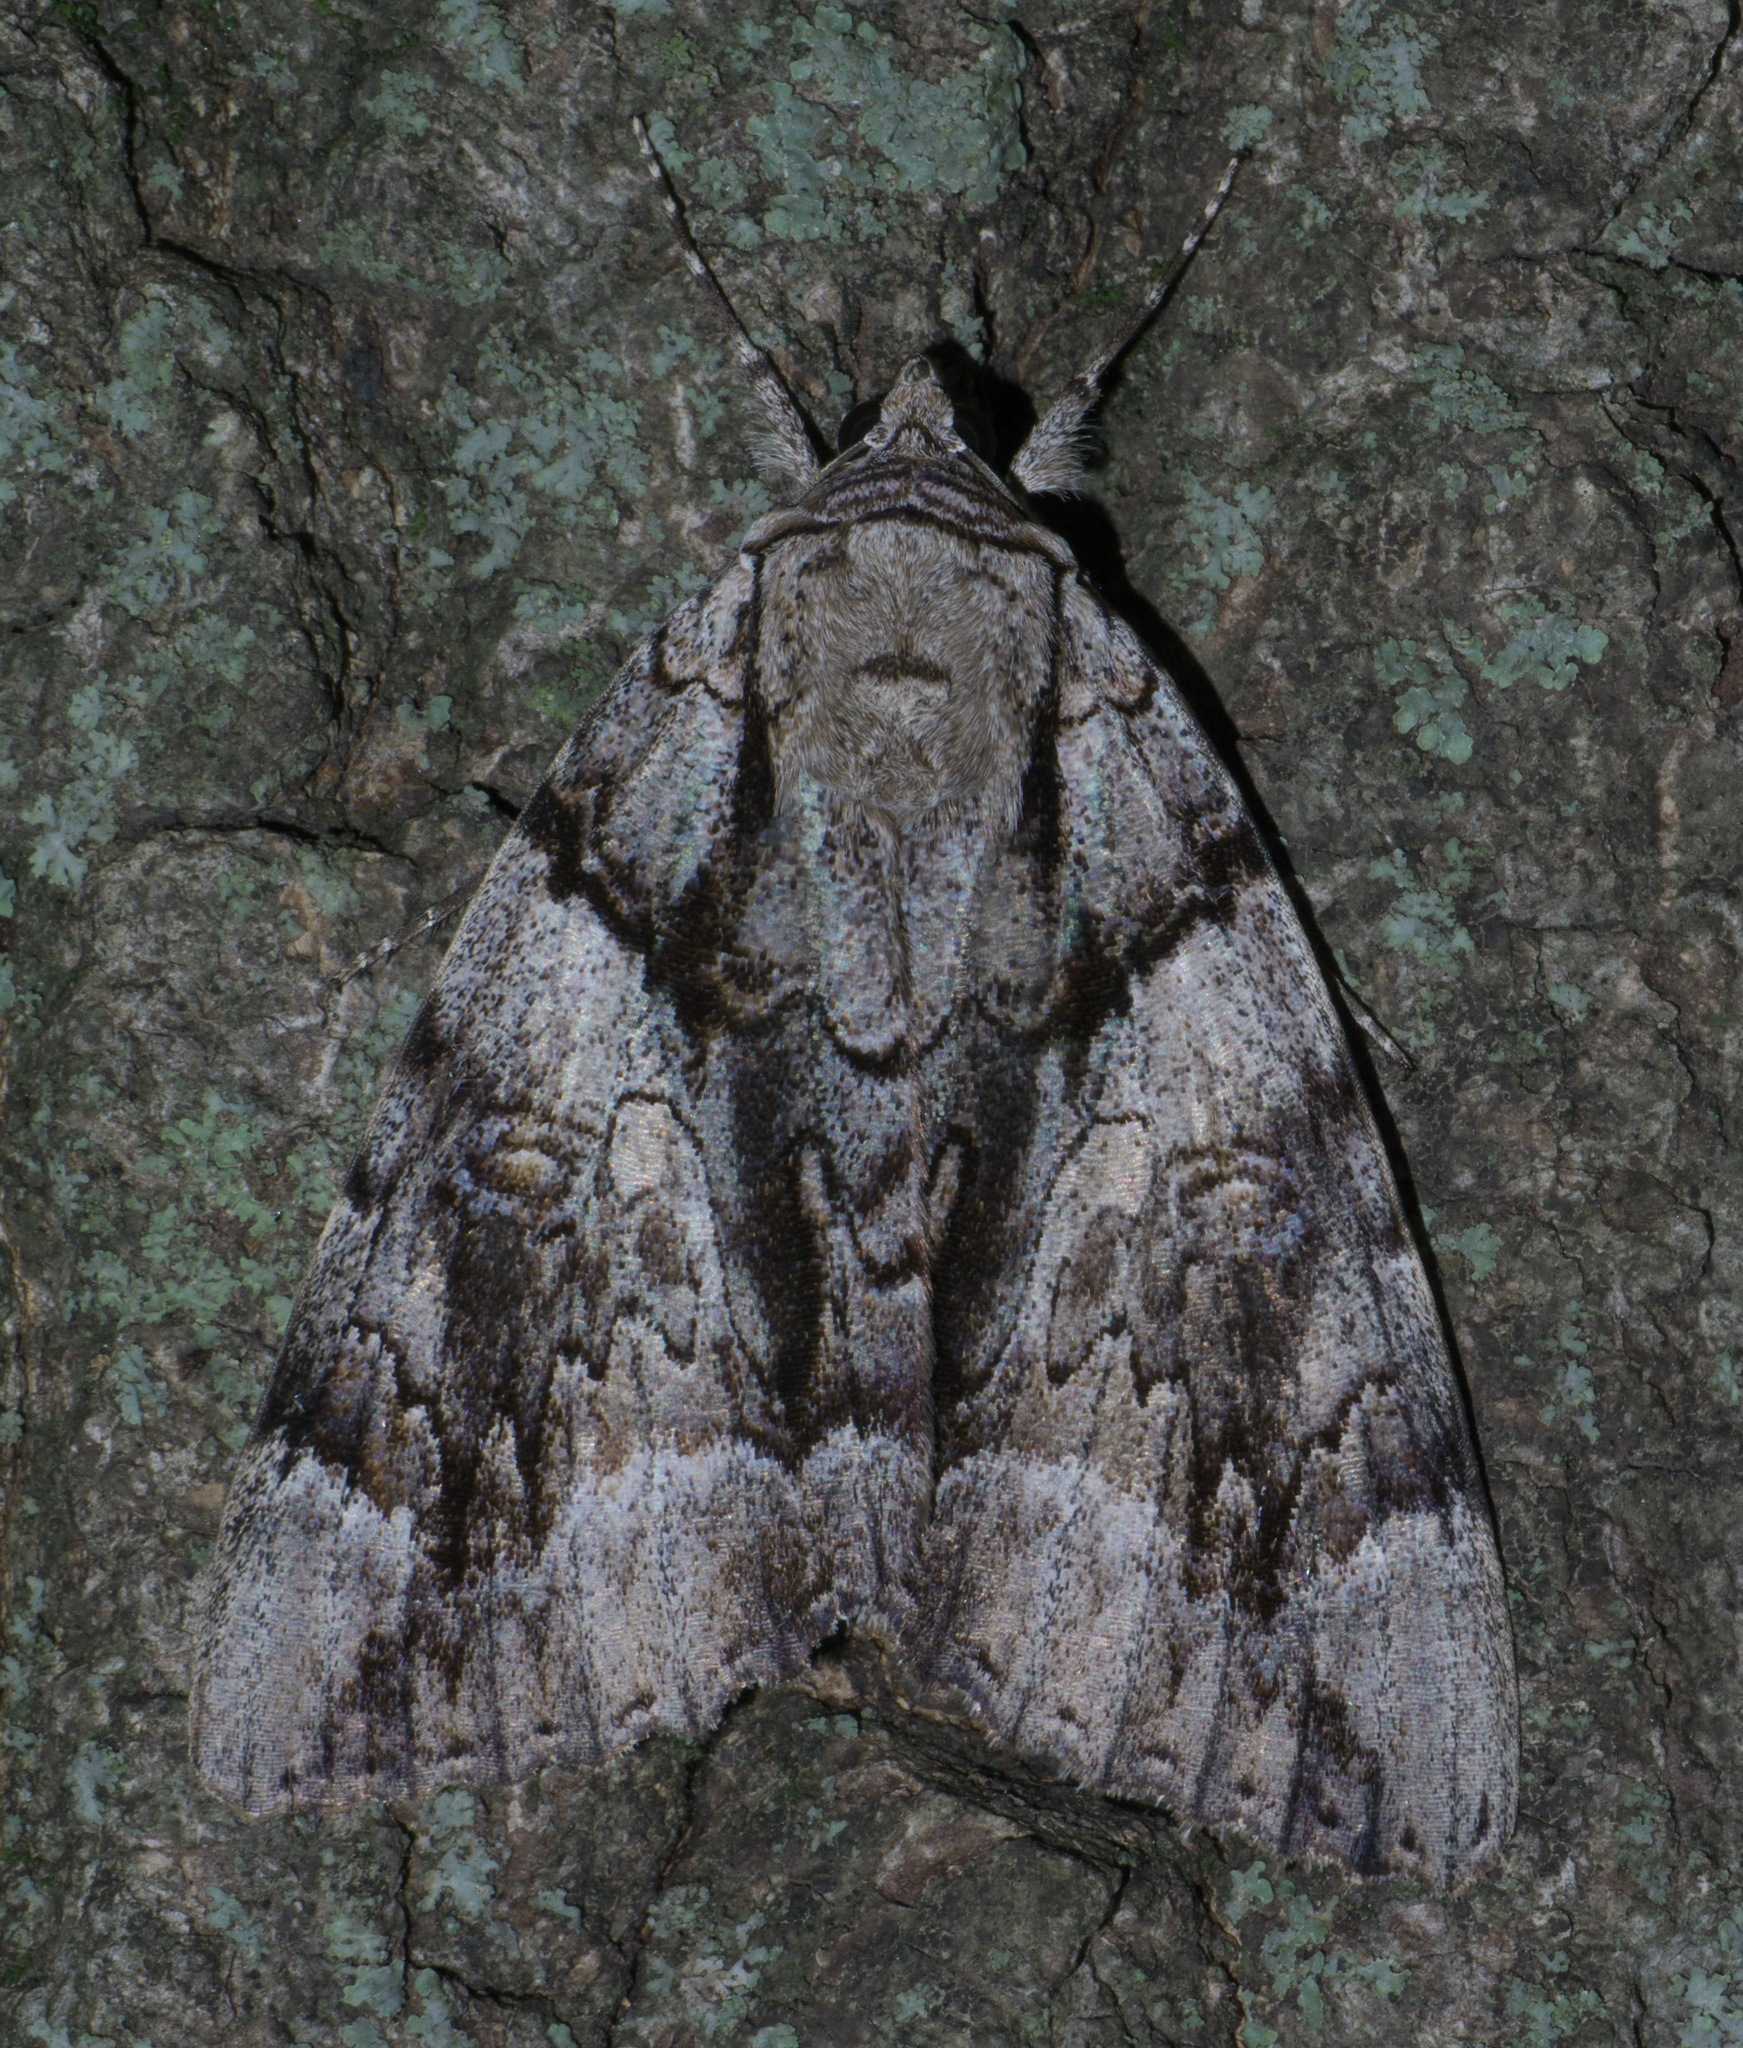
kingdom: Animalia
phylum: Arthropoda
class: Insecta
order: Lepidoptera
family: Erebidae
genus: Catocala
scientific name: Catocala vidua
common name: The widow
